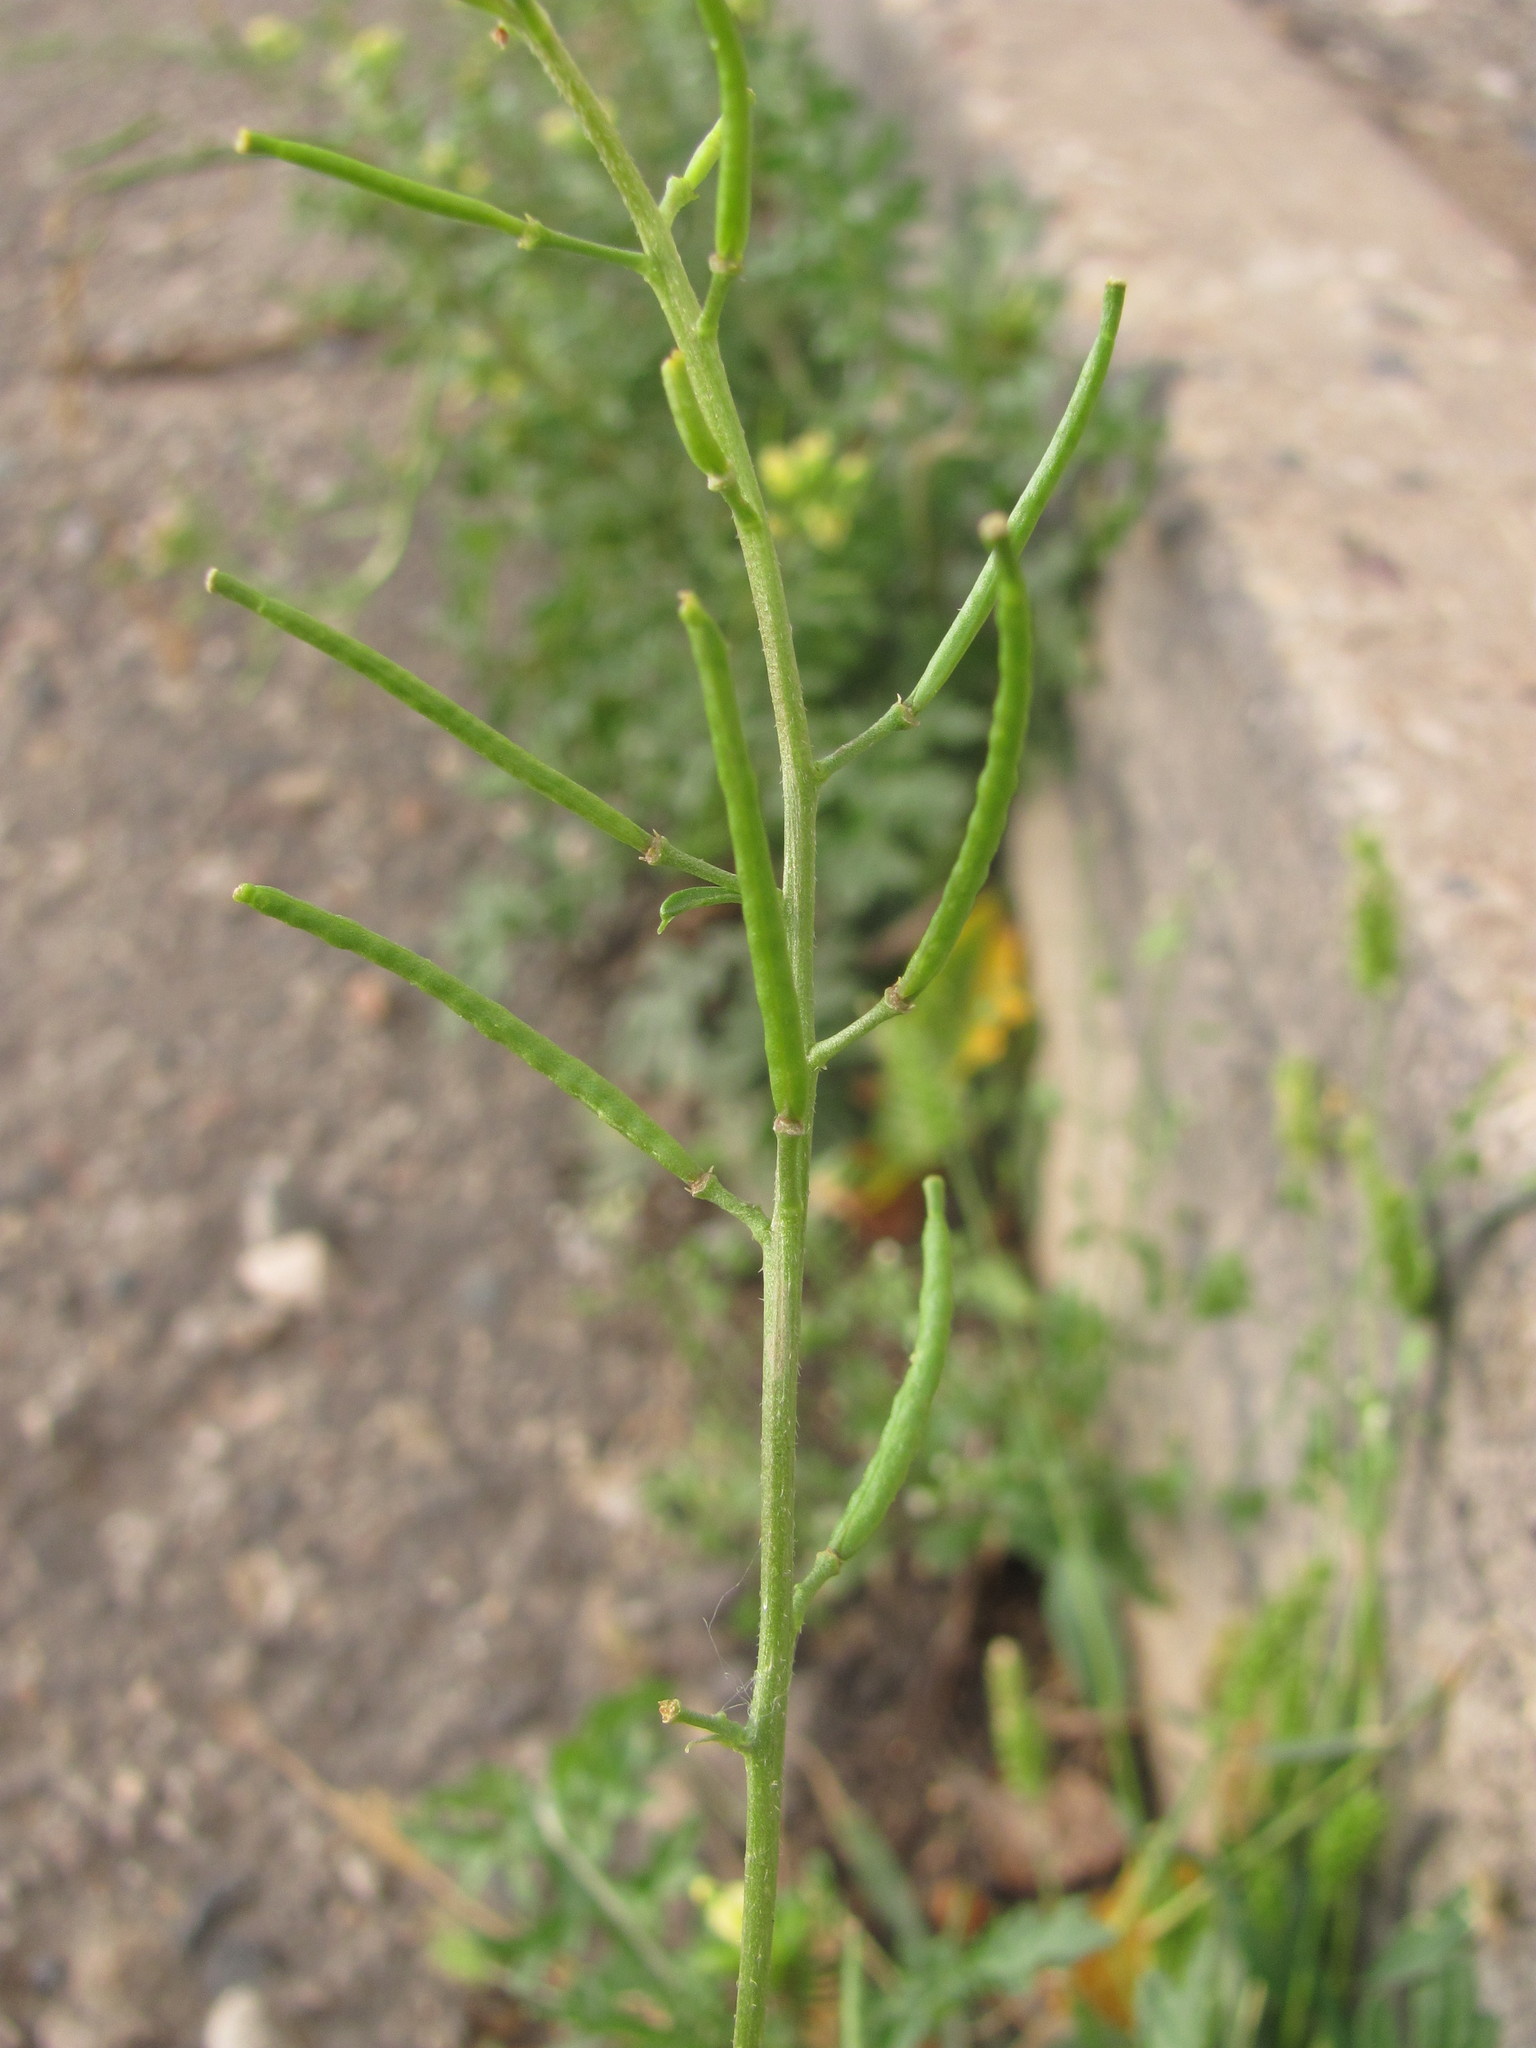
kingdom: Plantae
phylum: Tracheophyta
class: Magnoliopsida
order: Brassicales
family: Brassicaceae
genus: Erucastrum
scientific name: Erucastrum gallicum
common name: Hairy rocket
